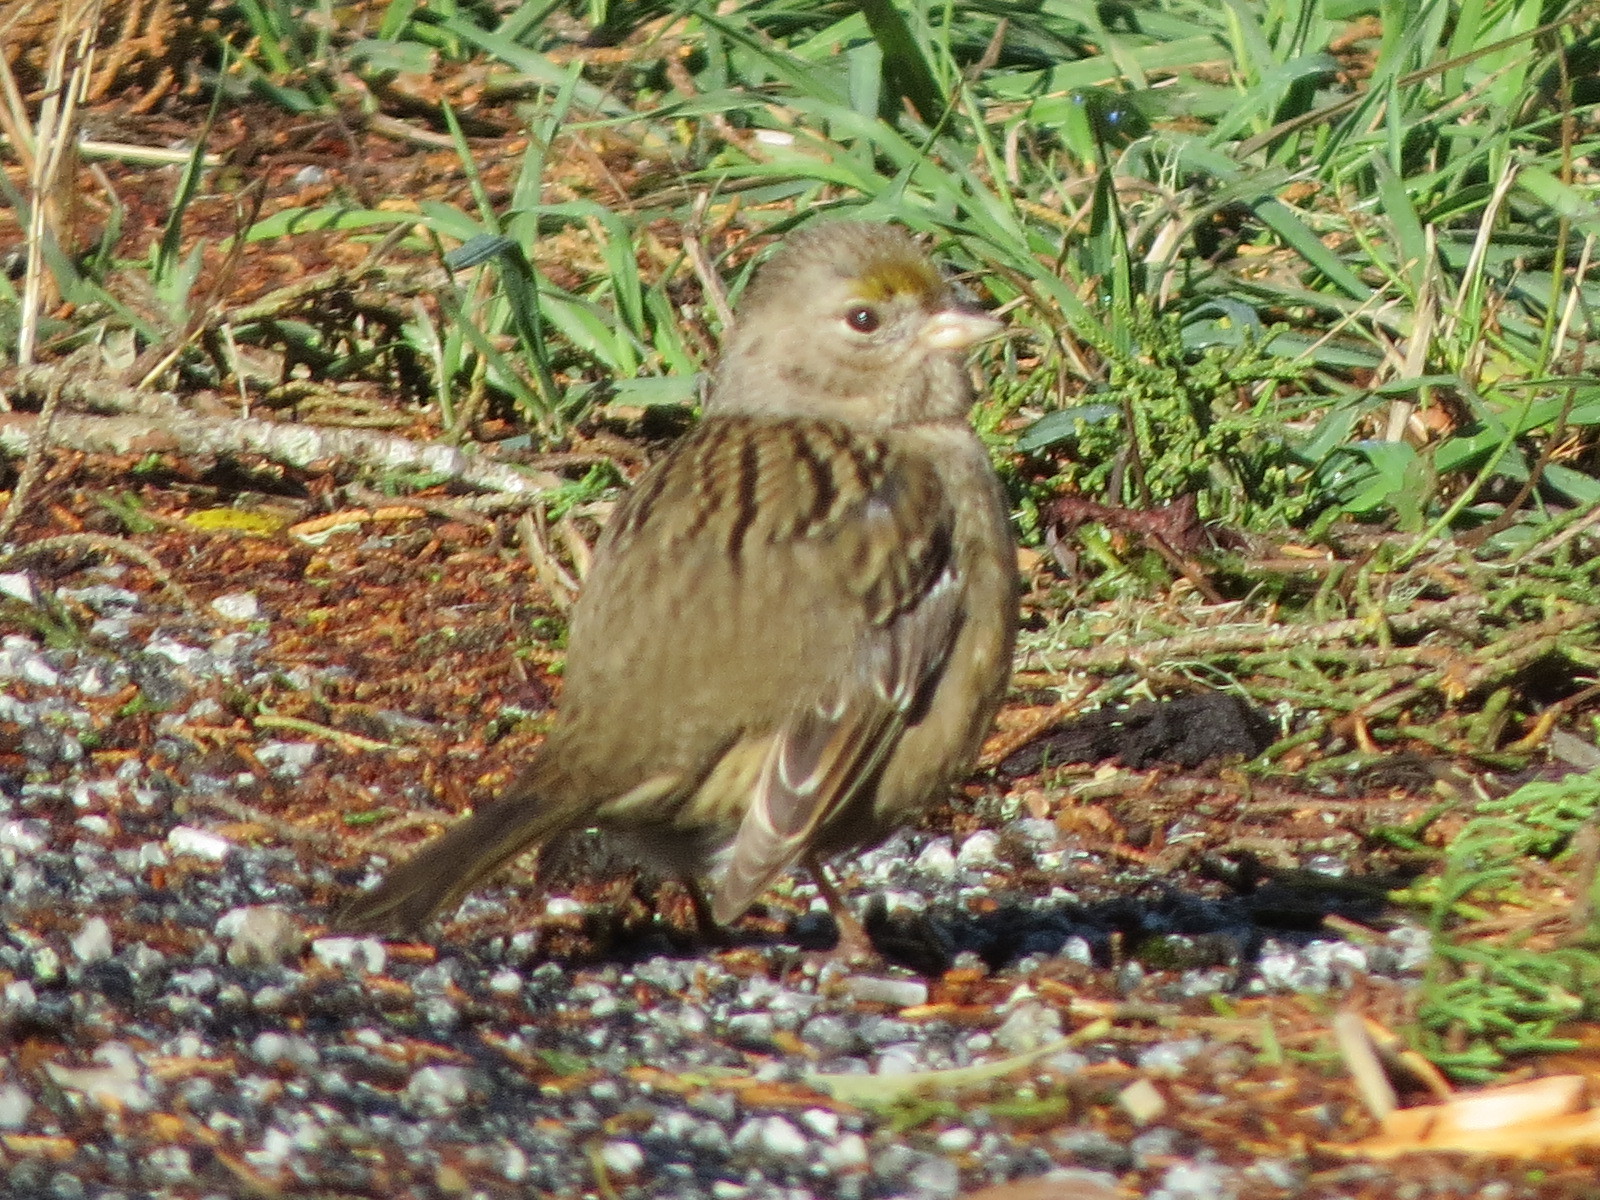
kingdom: Animalia
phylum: Chordata
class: Aves
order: Passeriformes
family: Passerellidae
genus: Zonotrichia
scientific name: Zonotrichia atricapilla
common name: Golden-crowned sparrow
